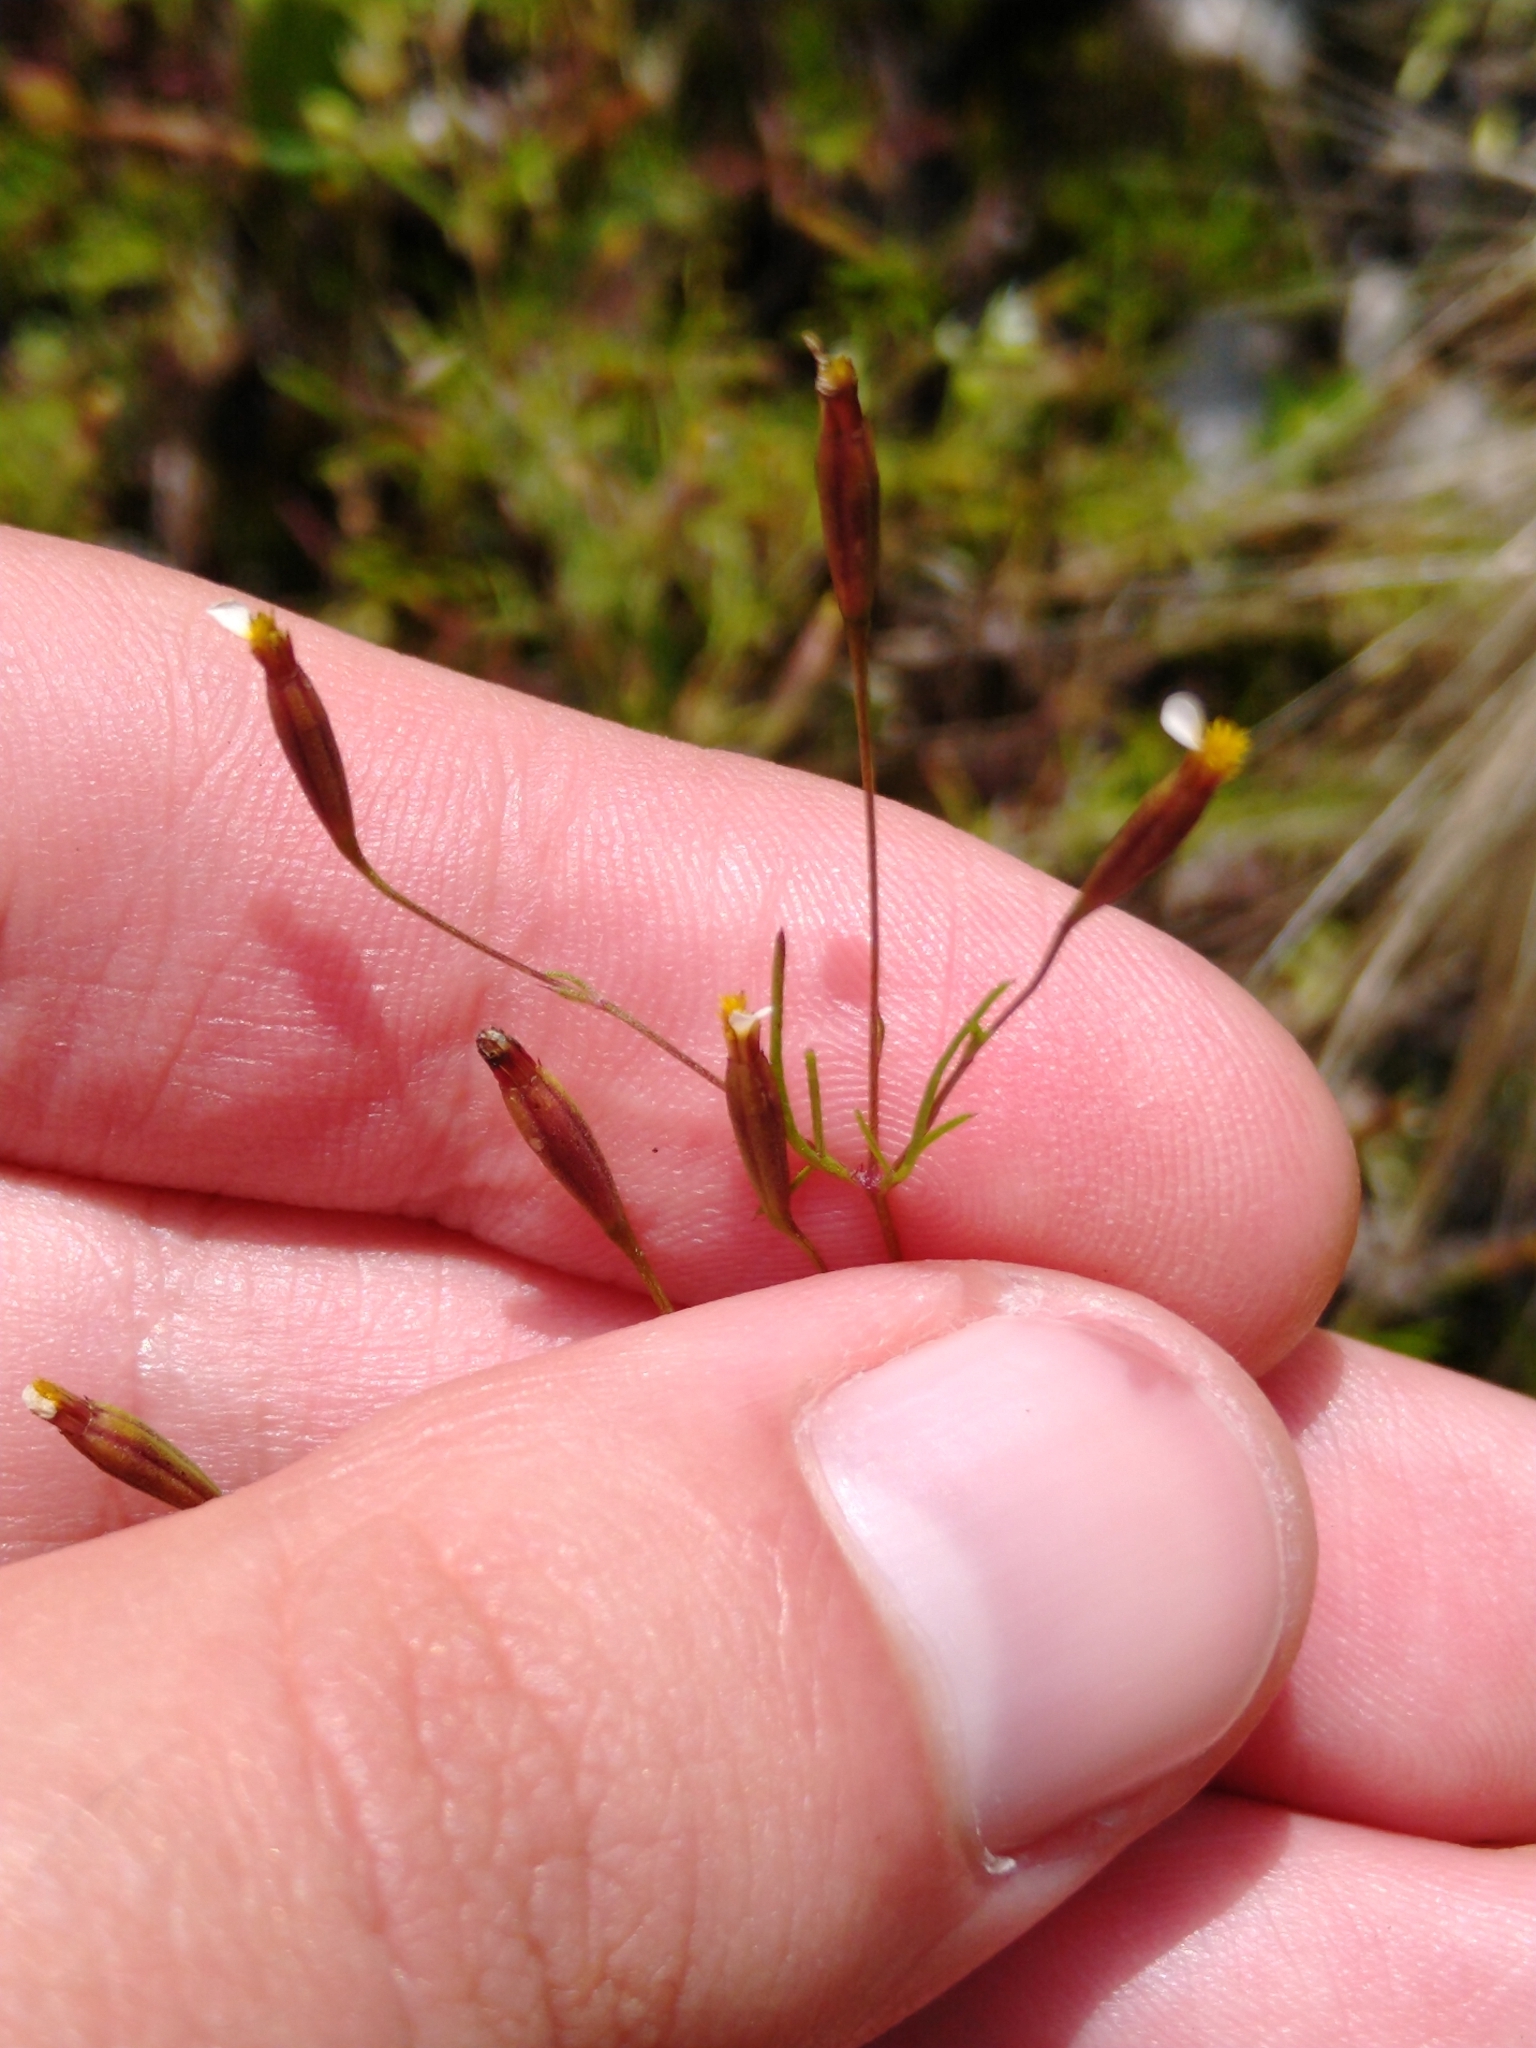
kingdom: Plantae
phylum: Tracheophyta
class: Magnoliopsida
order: Asterales
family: Asteraceae
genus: Tagetes
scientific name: Tagetes micrantha
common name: Licorice marigold
